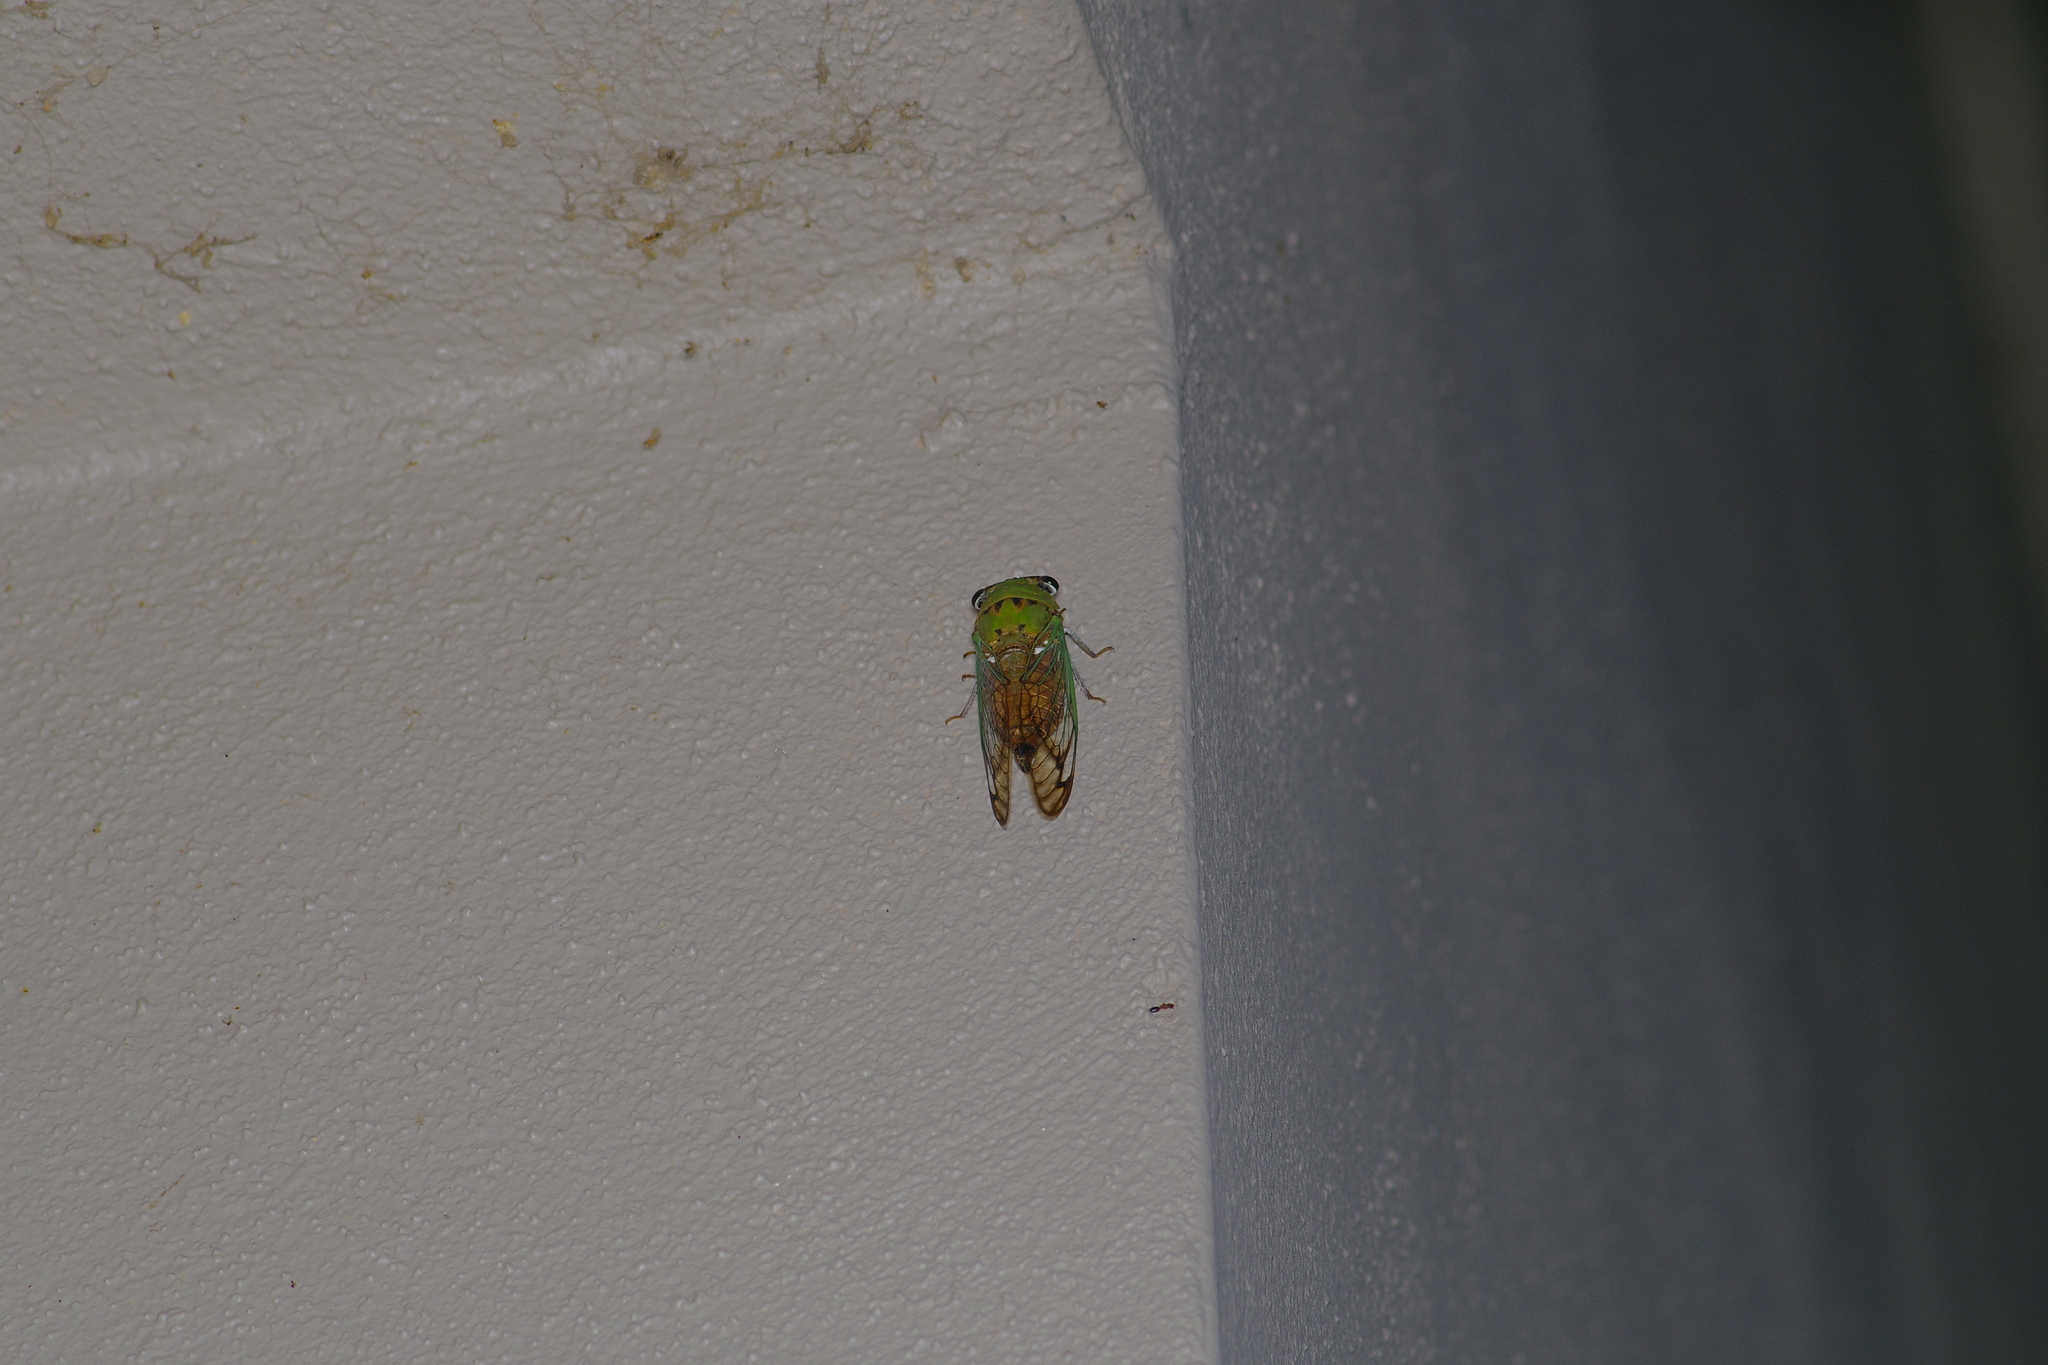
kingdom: Animalia
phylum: Arthropoda
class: Insecta
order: Hemiptera
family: Cicadidae
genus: Neotibicen
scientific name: Neotibicen superbus
